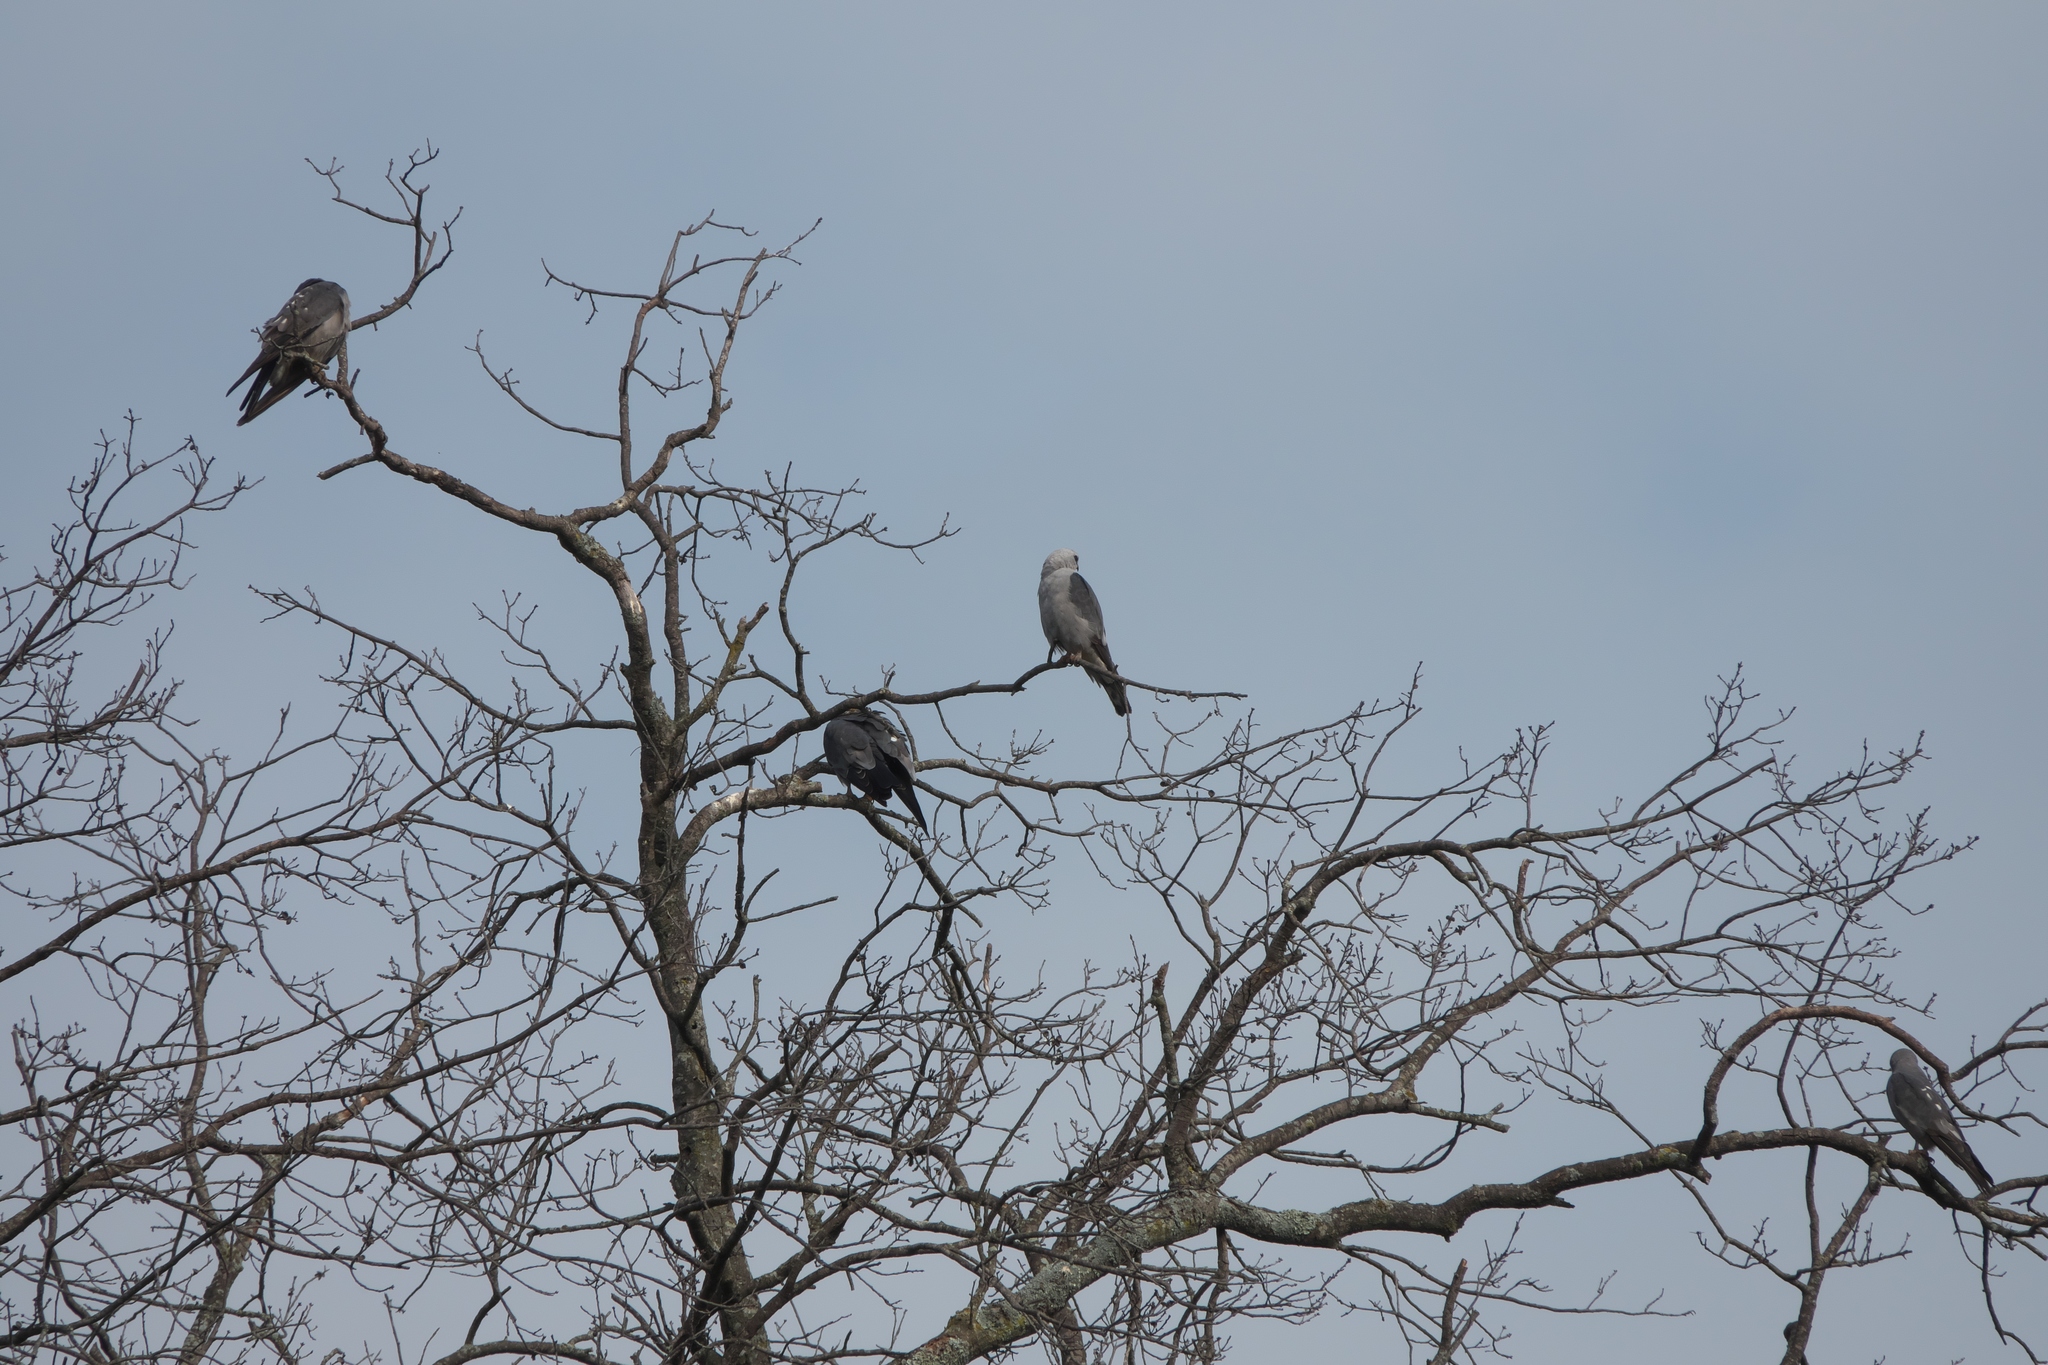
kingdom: Animalia
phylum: Chordata
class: Aves
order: Accipitriformes
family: Accipitridae
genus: Ictinia
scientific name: Ictinia mississippiensis
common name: Mississippi kite
